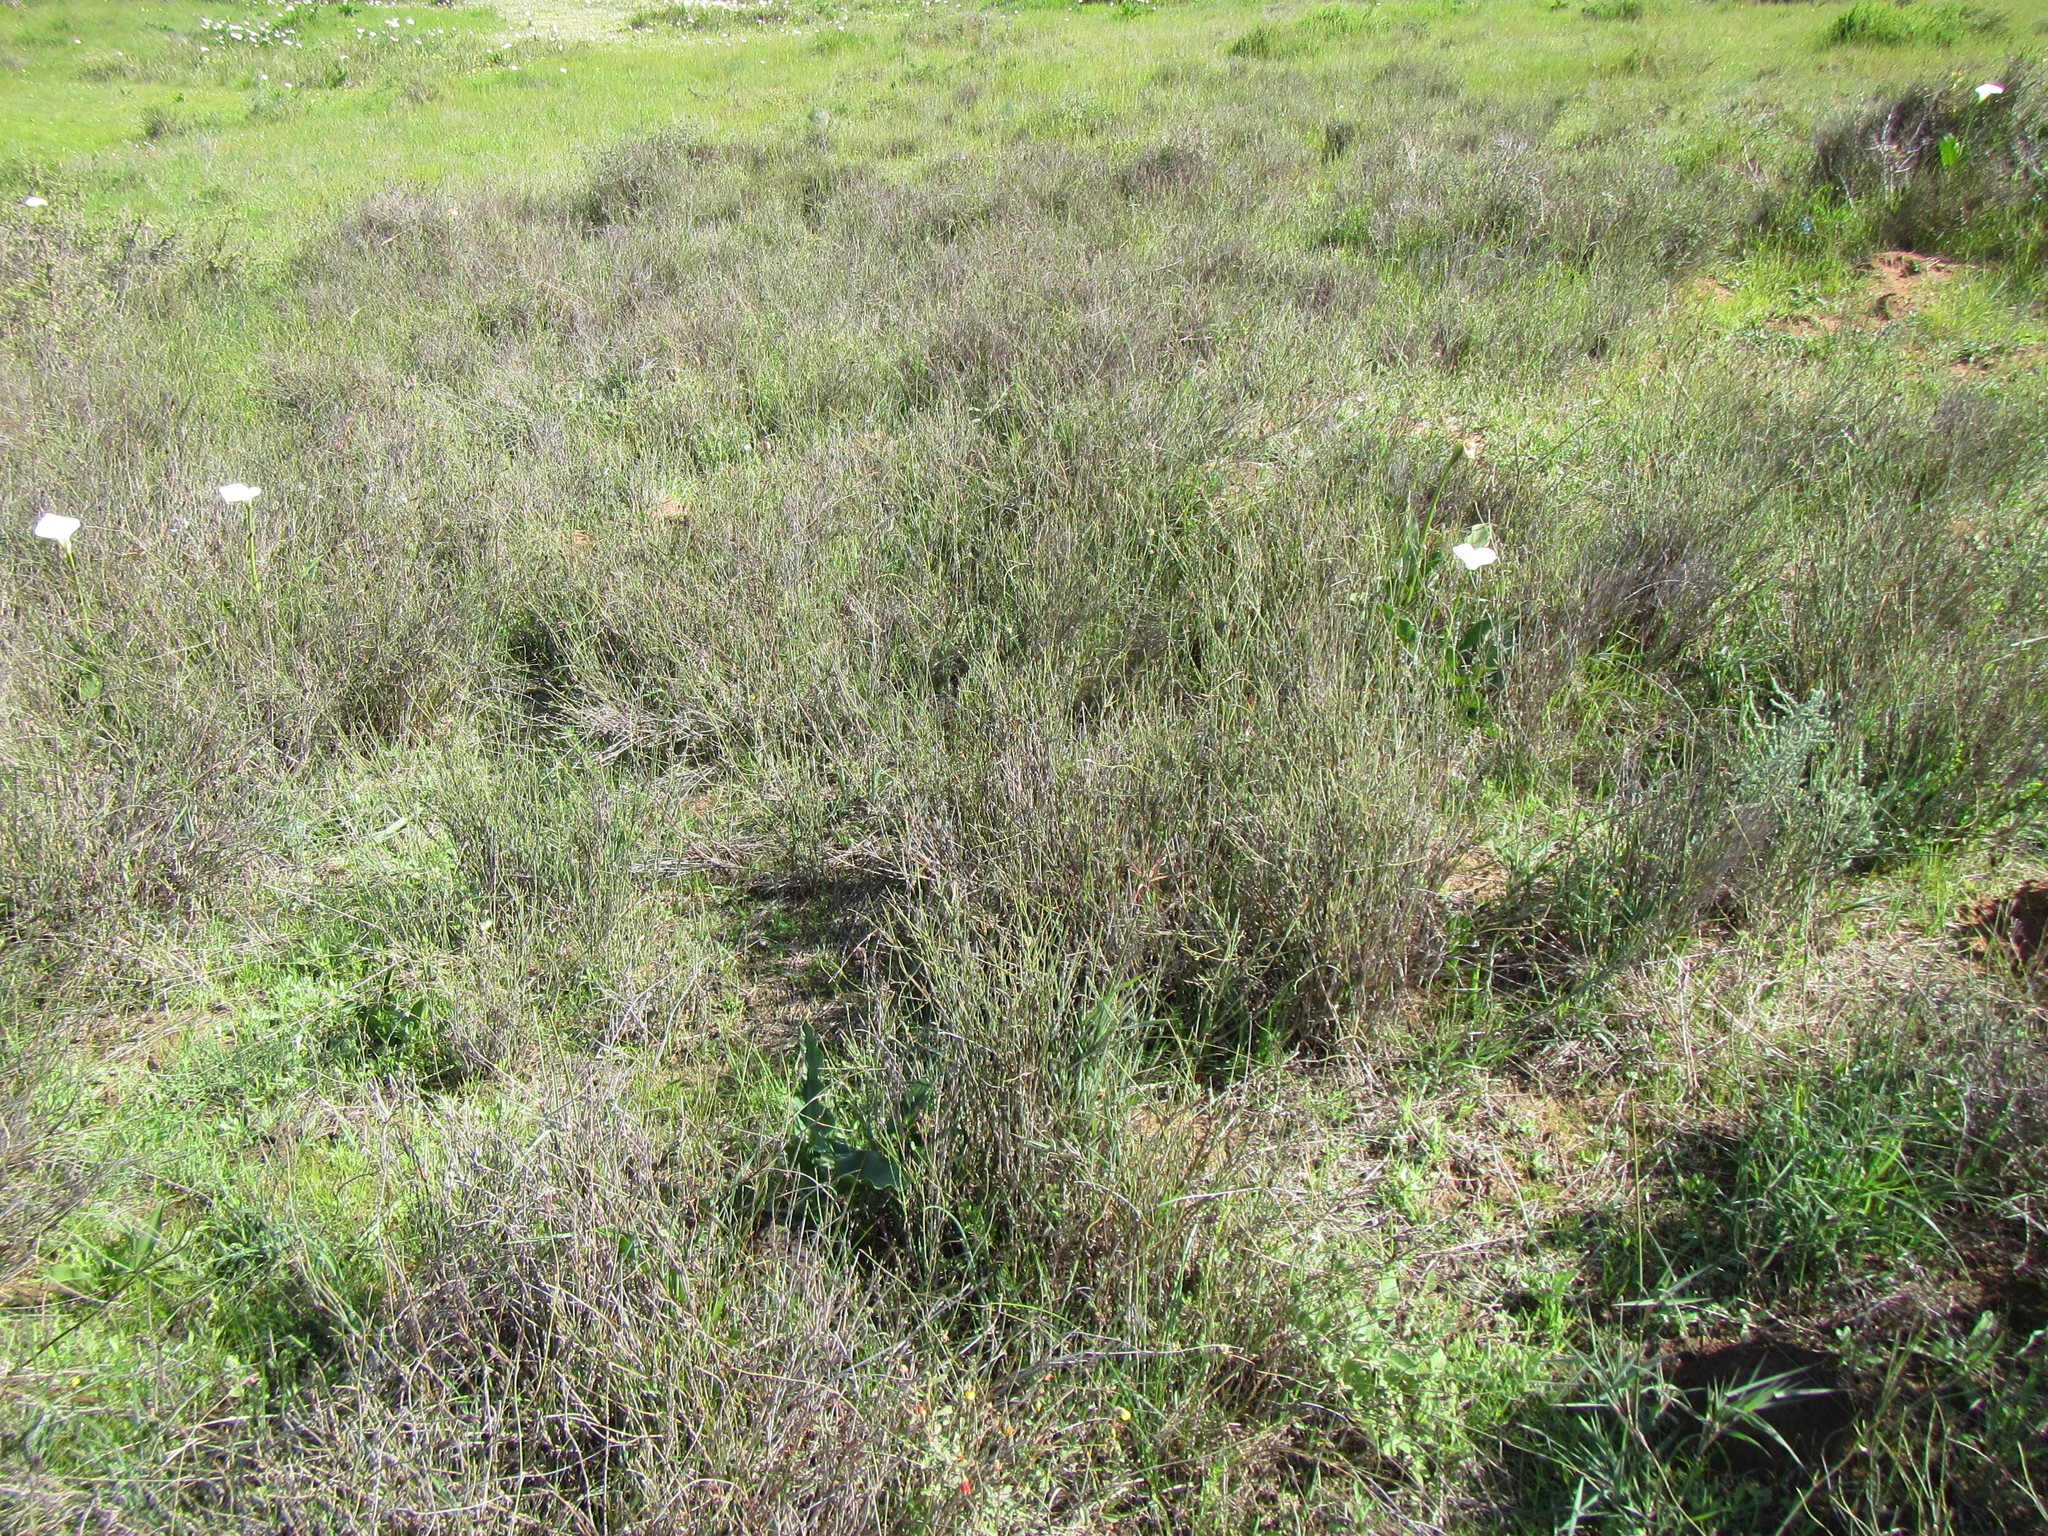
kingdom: Plantae
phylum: Tracheophyta
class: Liliopsida
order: Poales
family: Restionaceae
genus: Willdenowia
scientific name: Willdenowia incurvata
